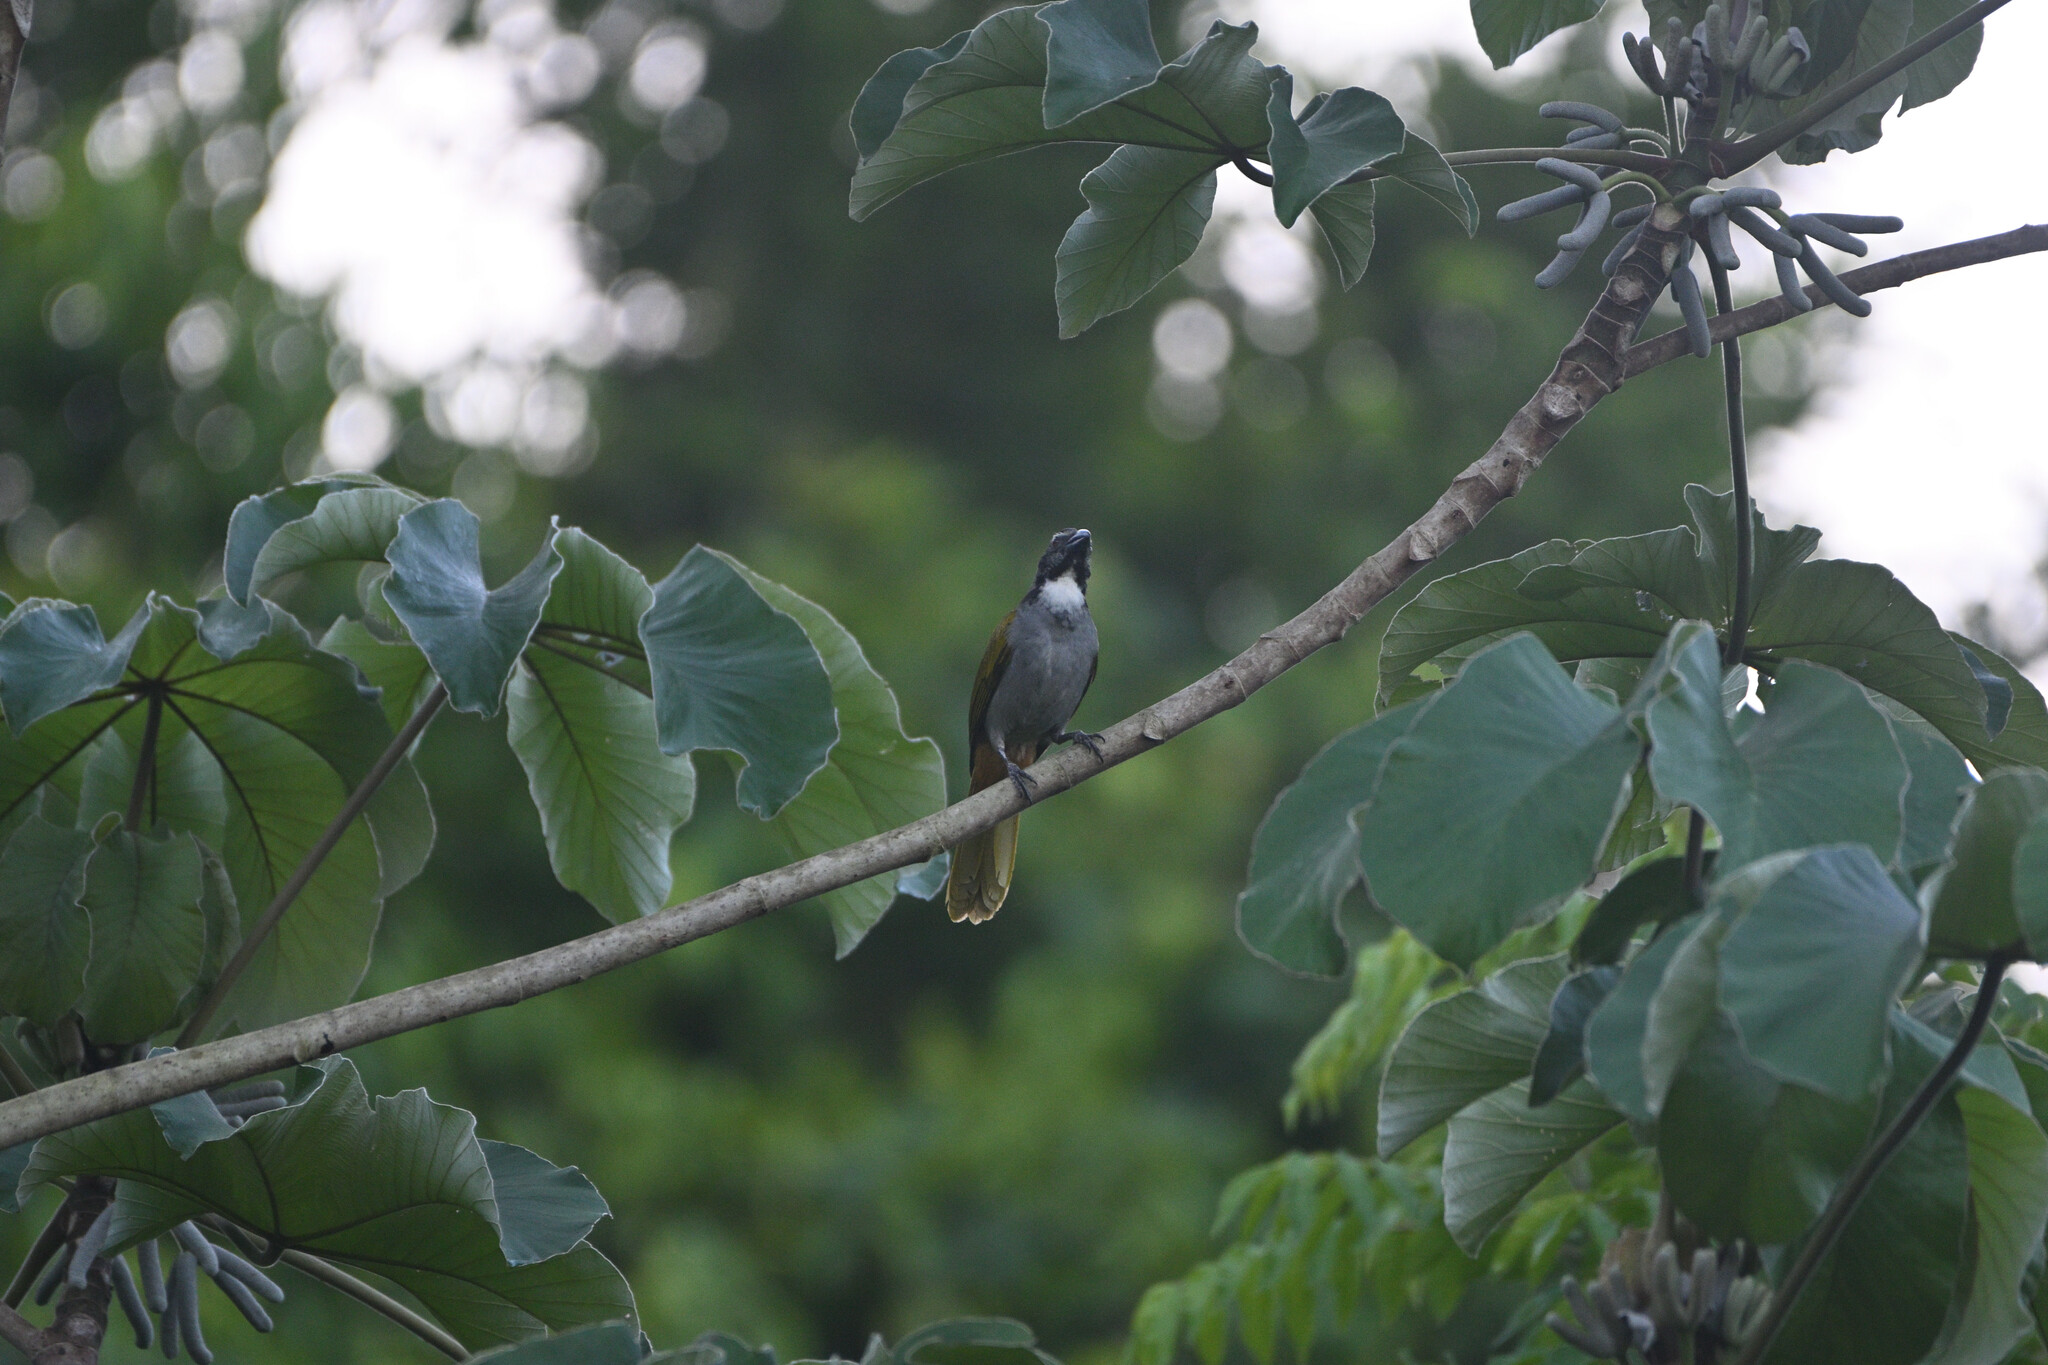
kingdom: Animalia
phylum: Chordata
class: Aves
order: Passeriformes
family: Thraupidae
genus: Saltator
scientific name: Saltator atriceps
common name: Black-headed saltator
